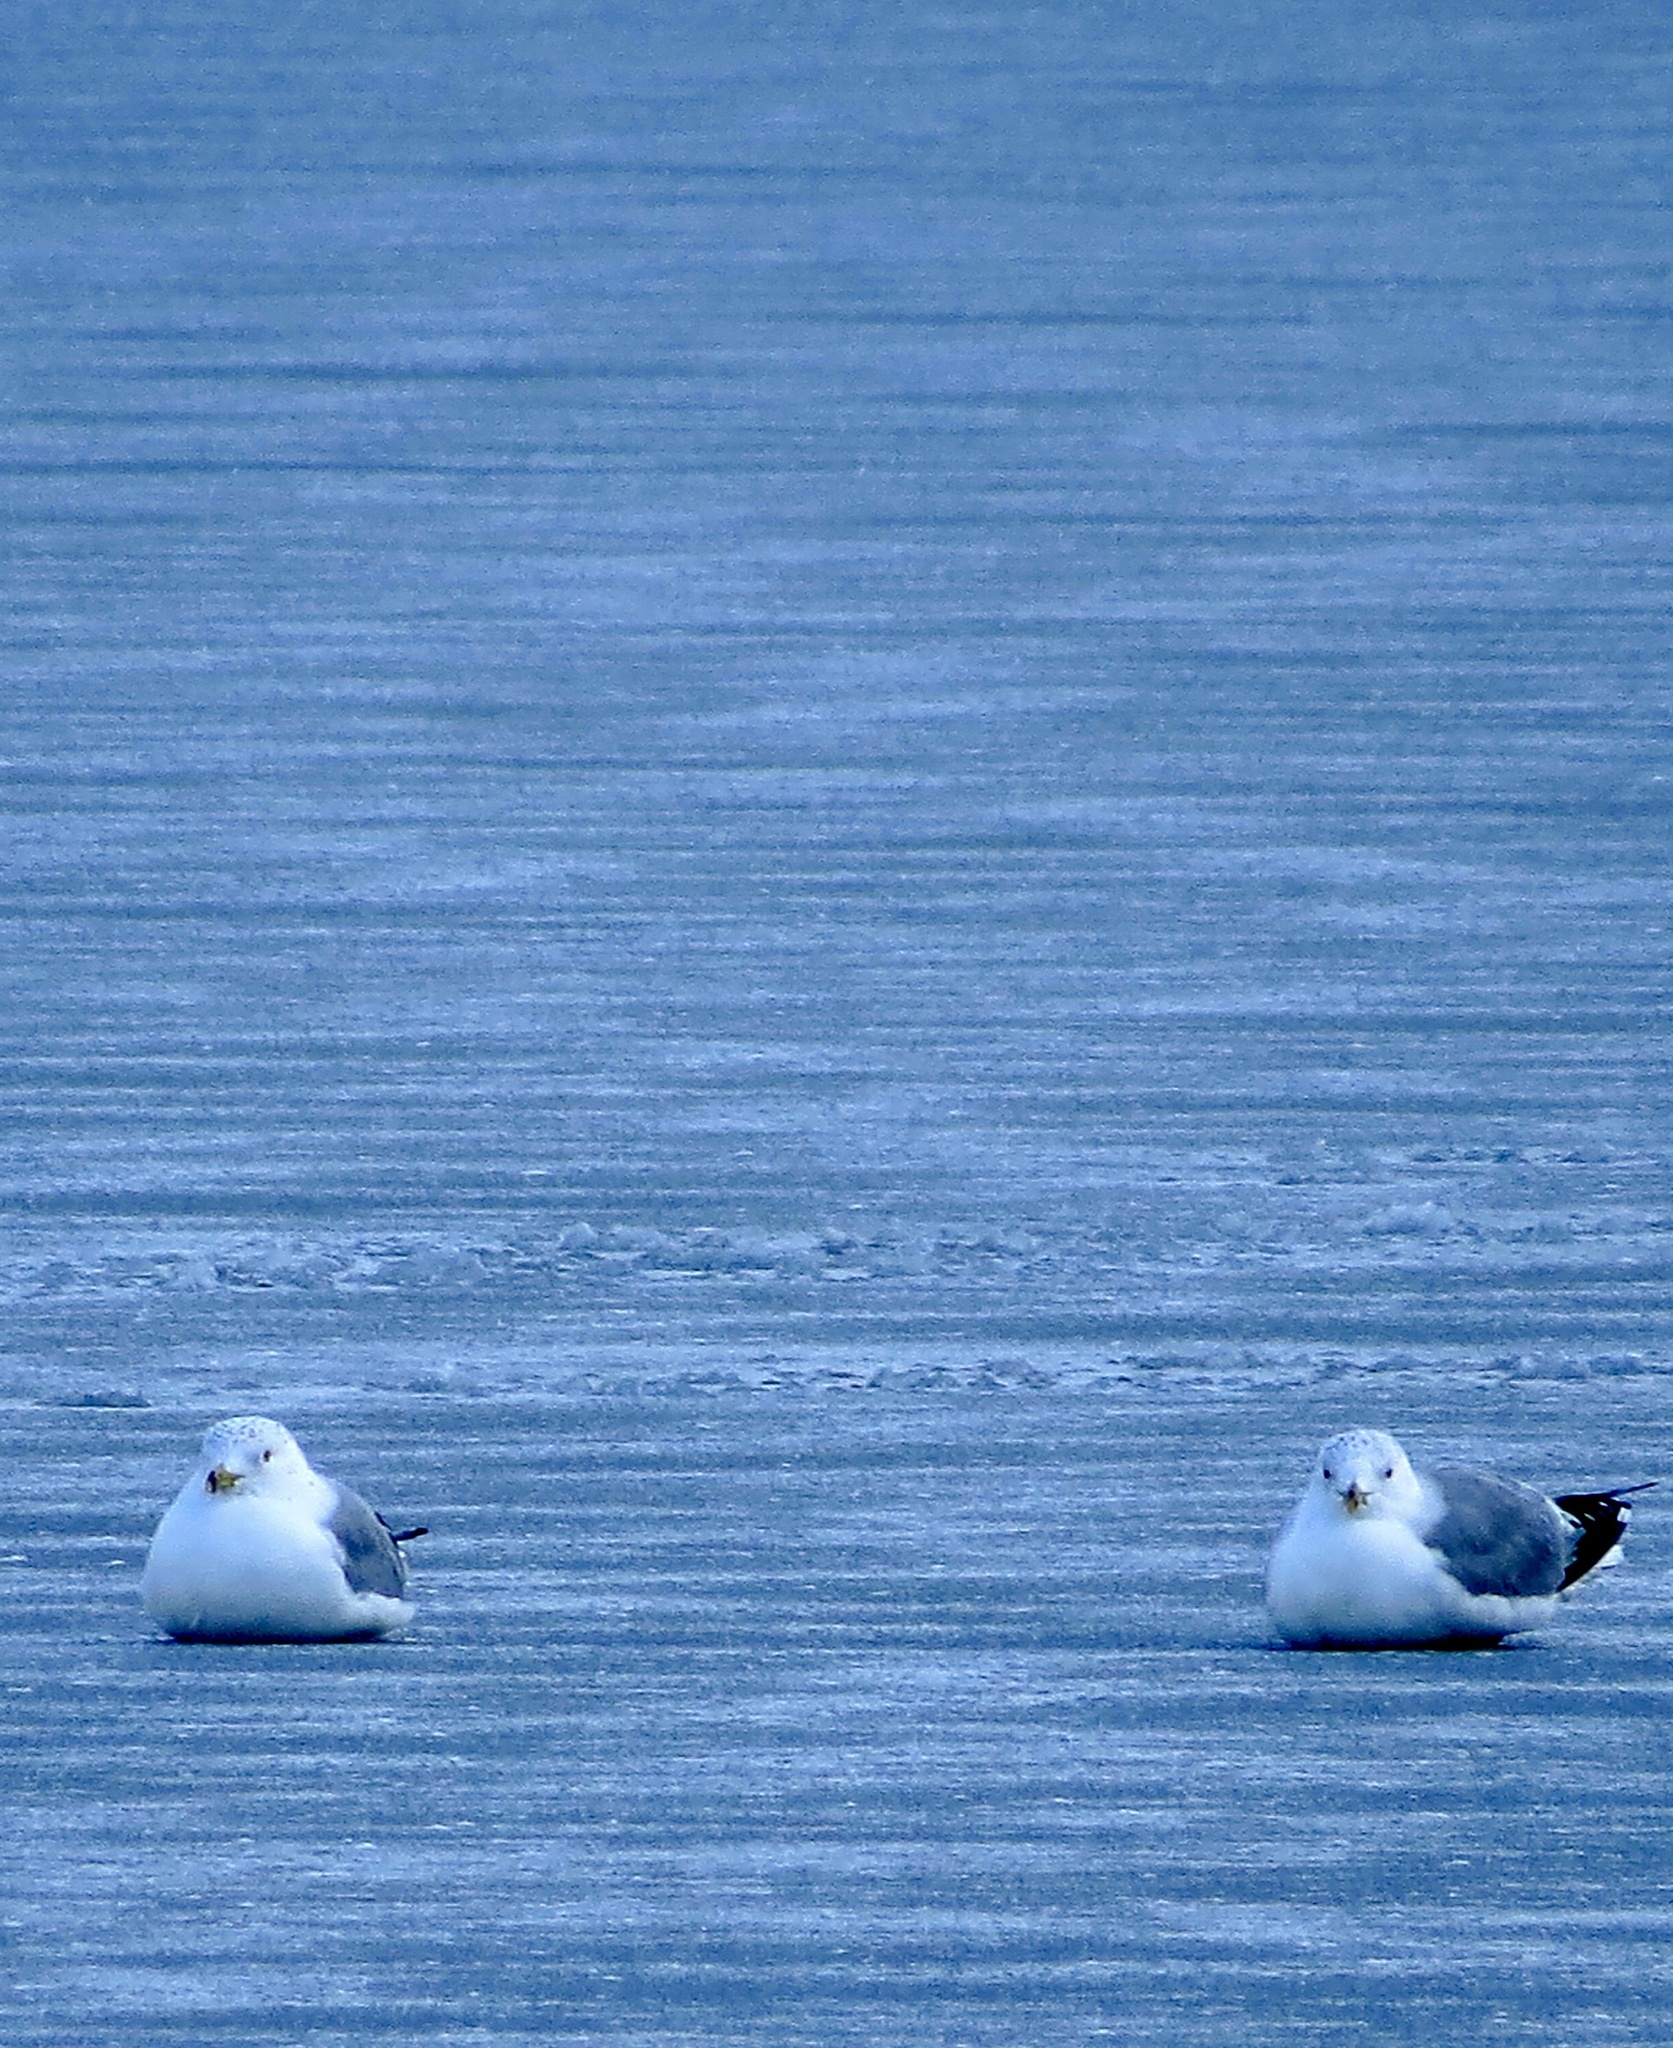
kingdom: Animalia
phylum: Chordata
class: Aves
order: Charadriiformes
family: Laridae
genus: Larus
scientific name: Larus delawarensis
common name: Ring-billed gull
